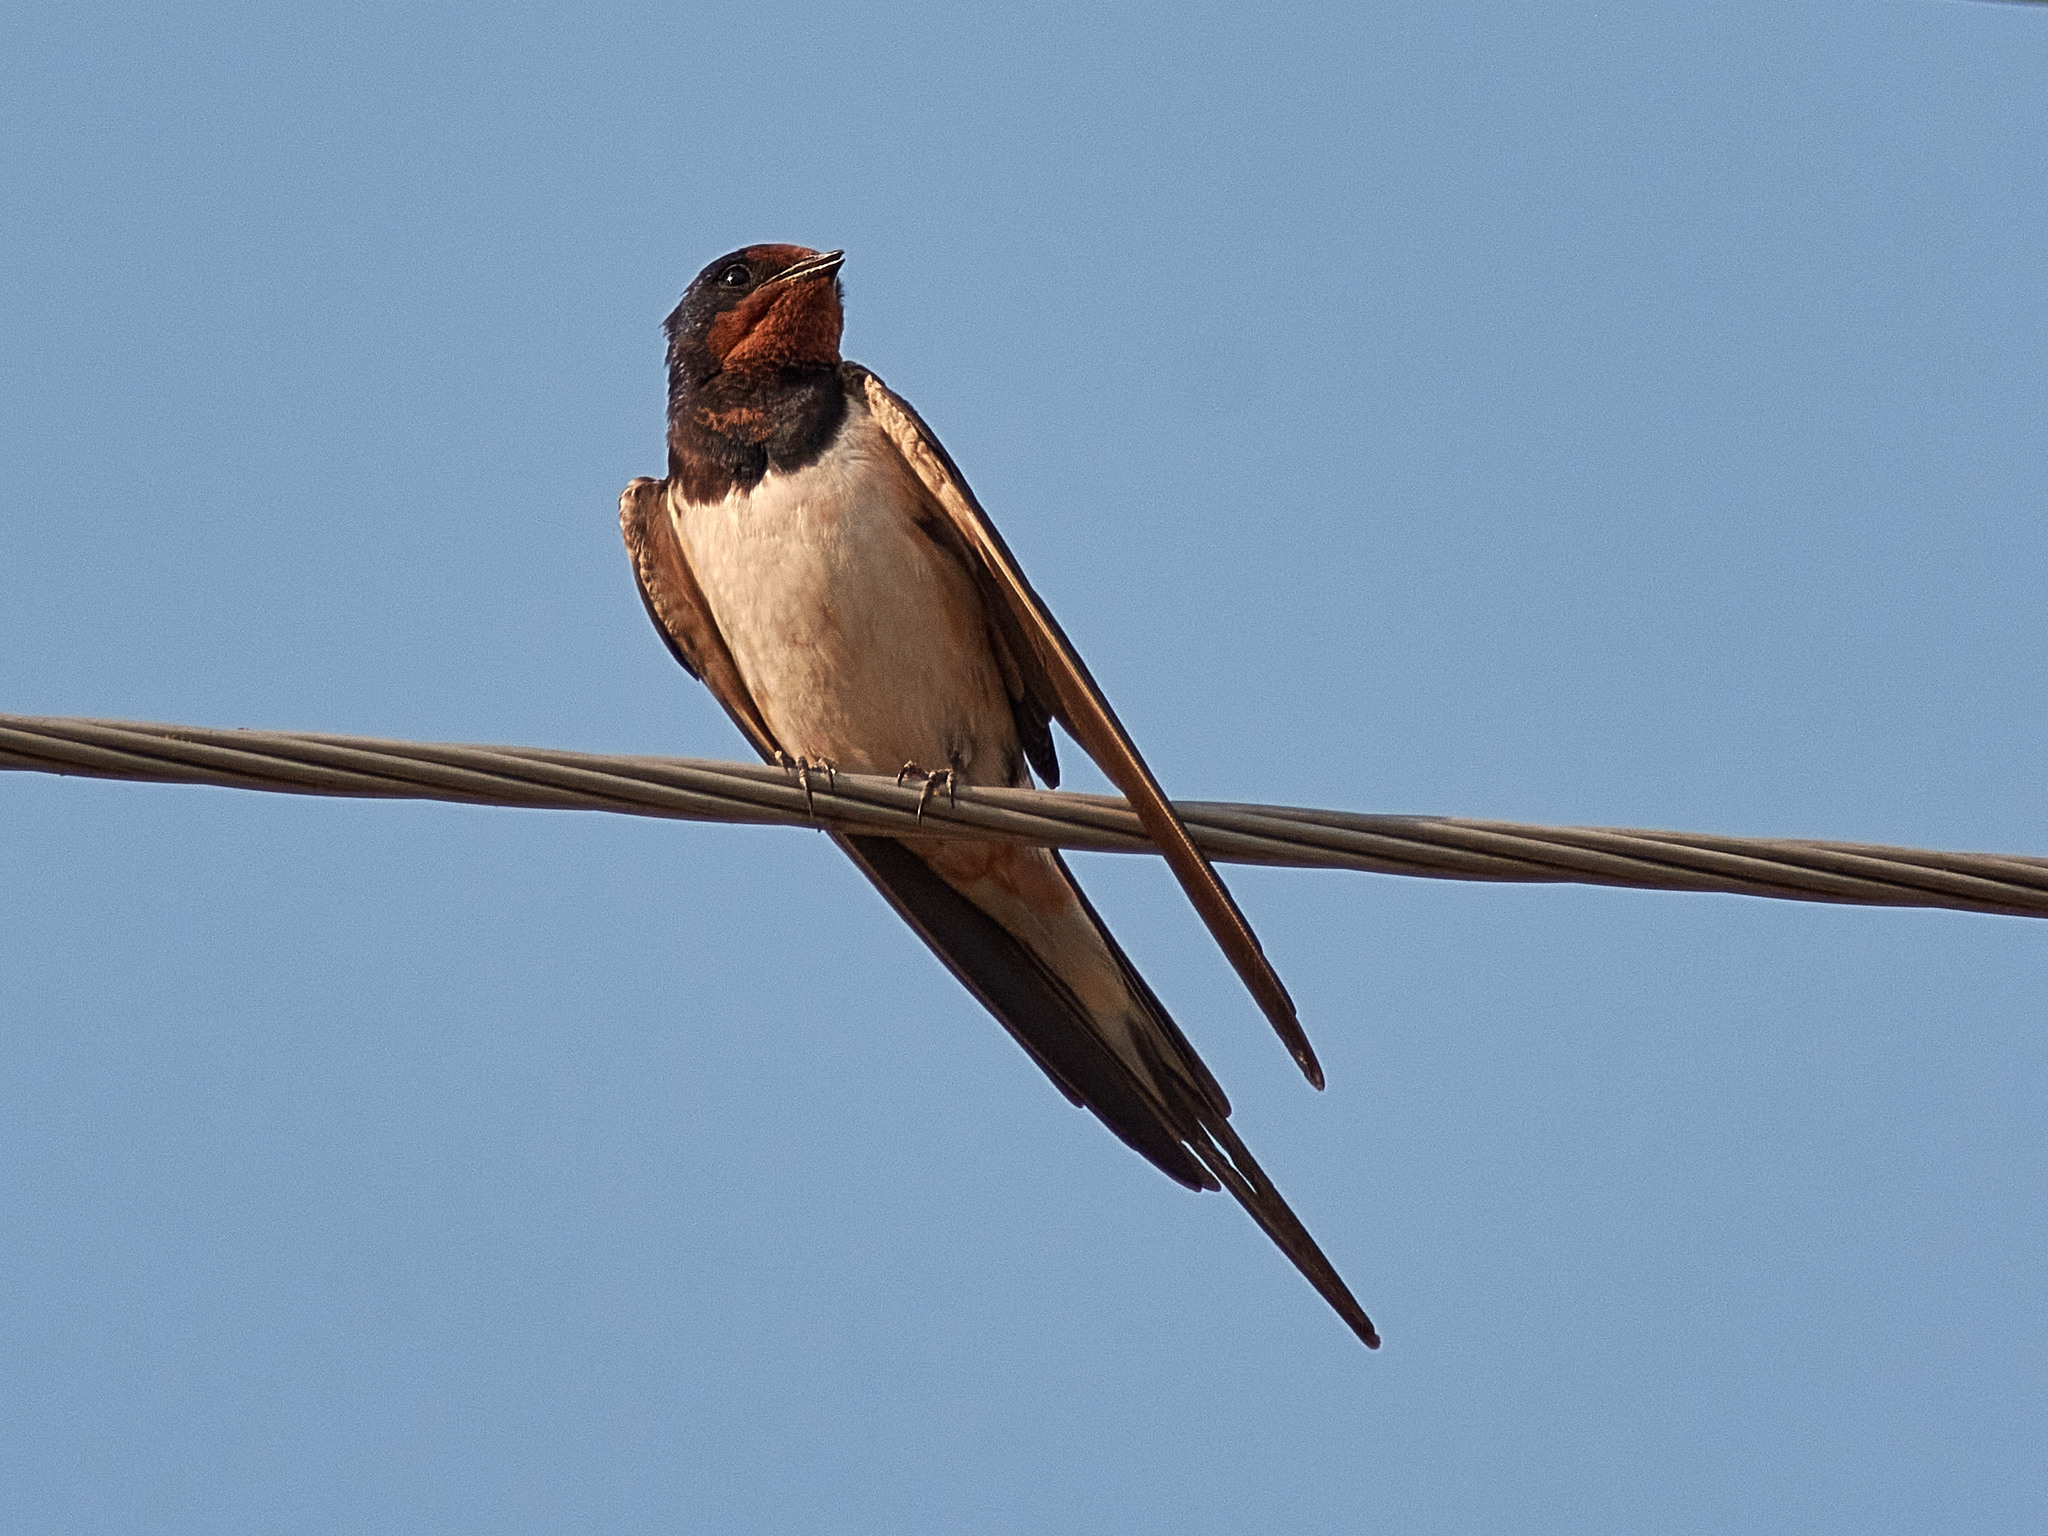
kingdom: Animalia
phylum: Chordata
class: Aves
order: Passeriformes
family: Hirundinidae
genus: Hirundo
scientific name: Hirundo rustica
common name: Barn swallow
